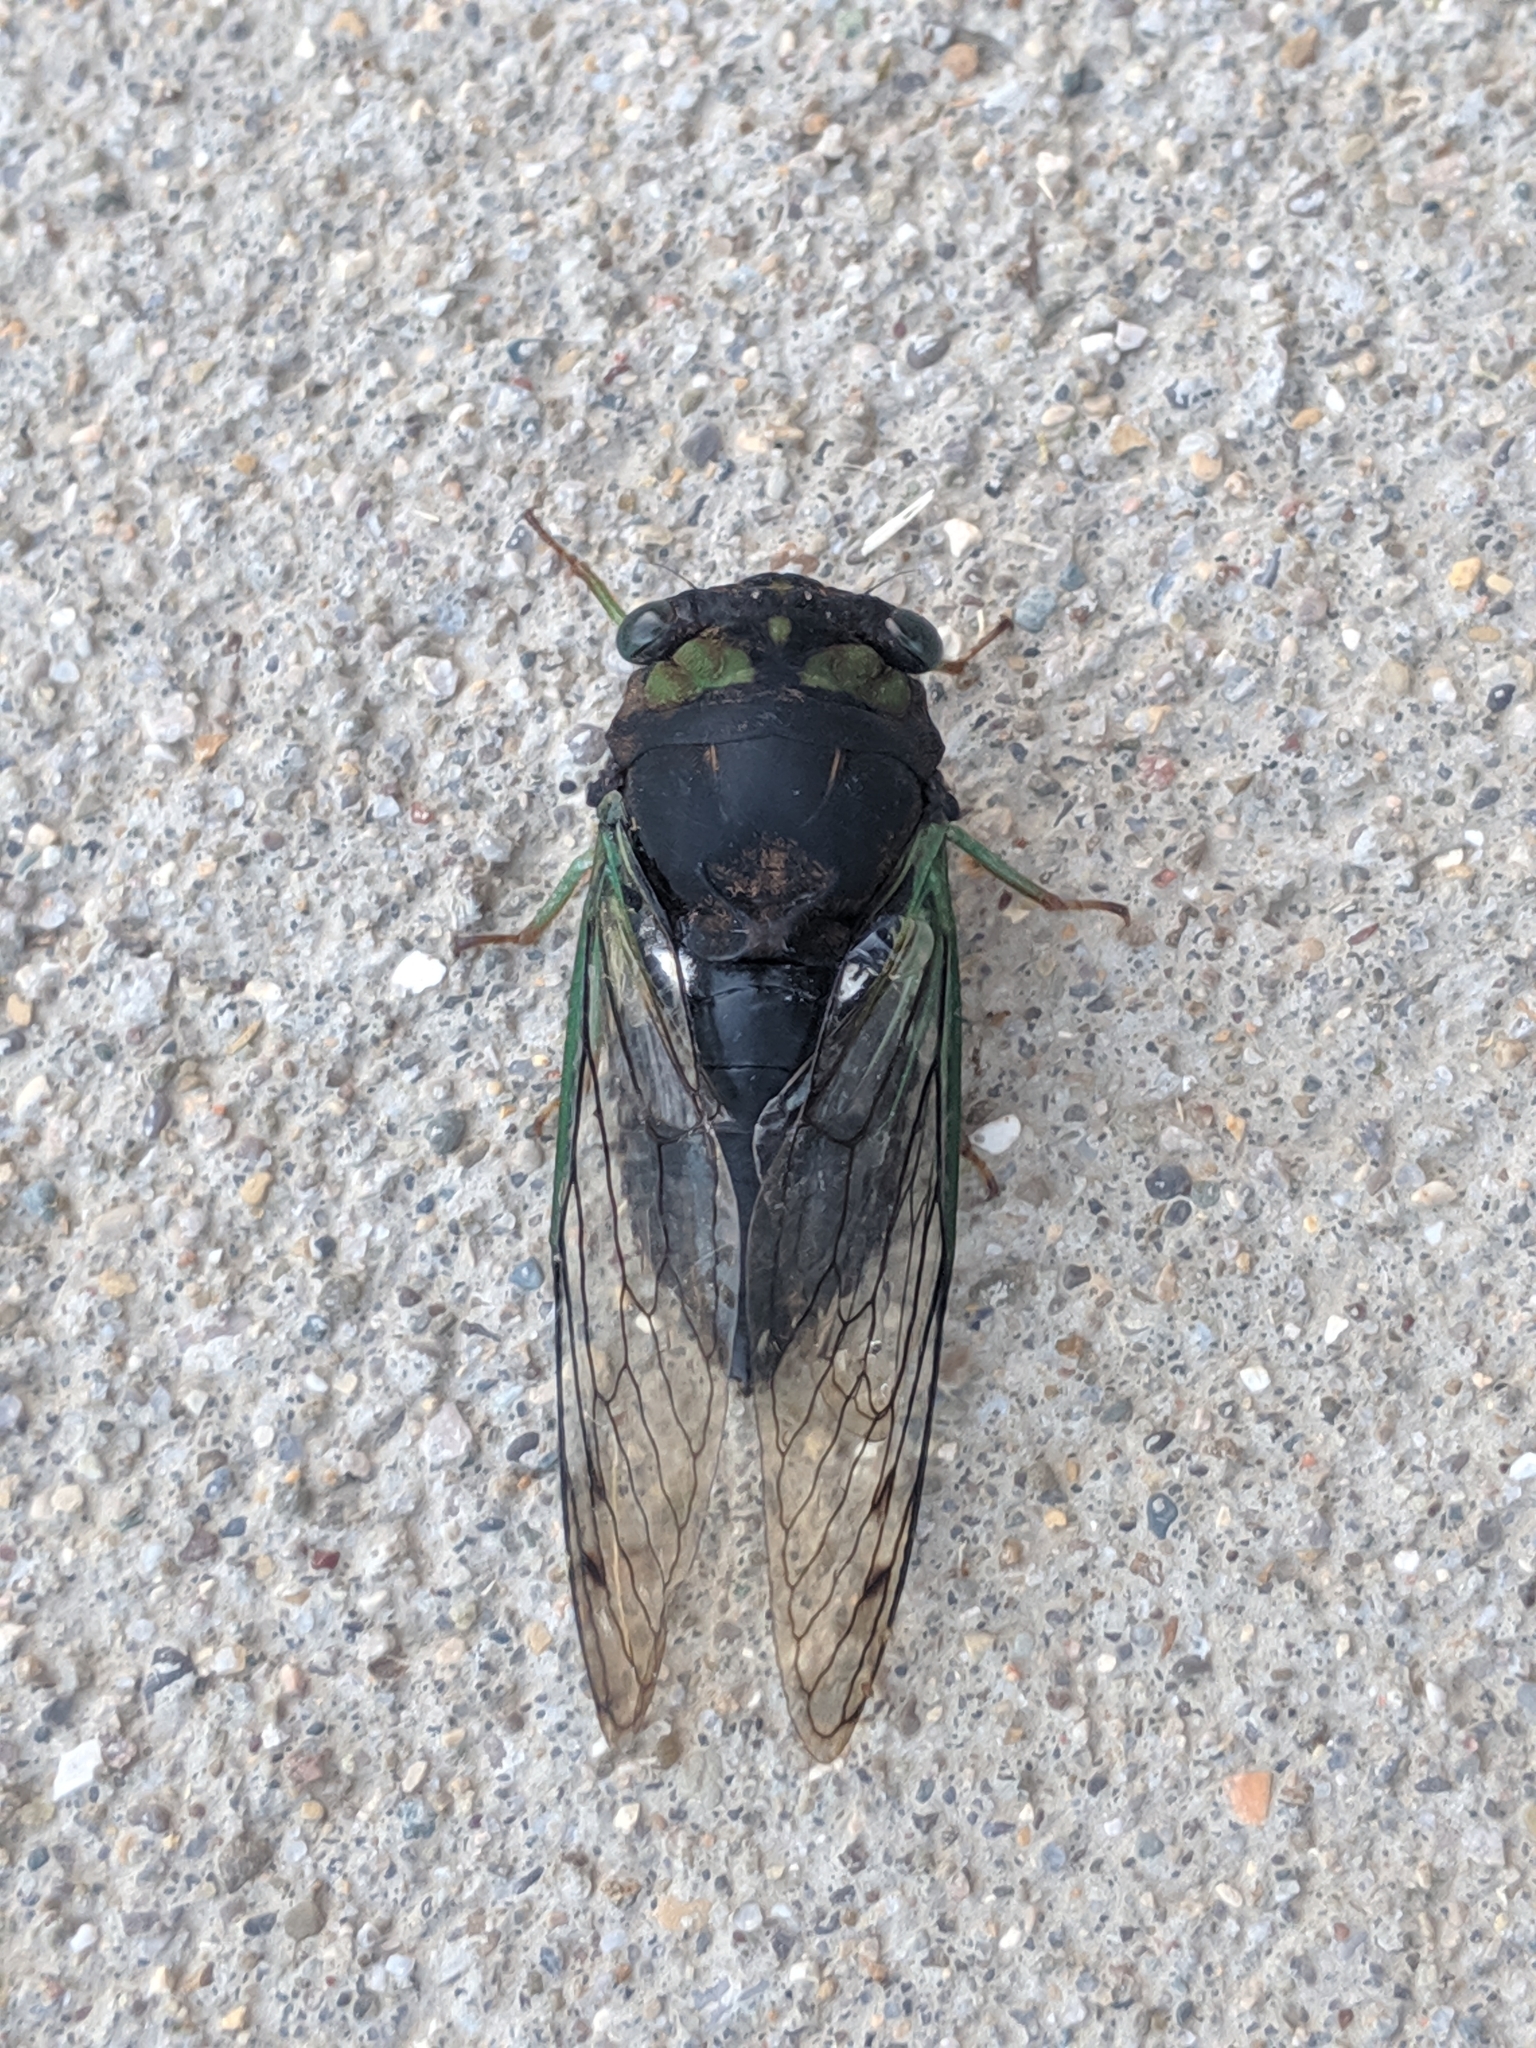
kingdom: Animalia
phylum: Arthropoda
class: Insecta
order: Hemiptera
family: Cicadidae
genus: Neotibicen
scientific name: Neotibicen tibicen
